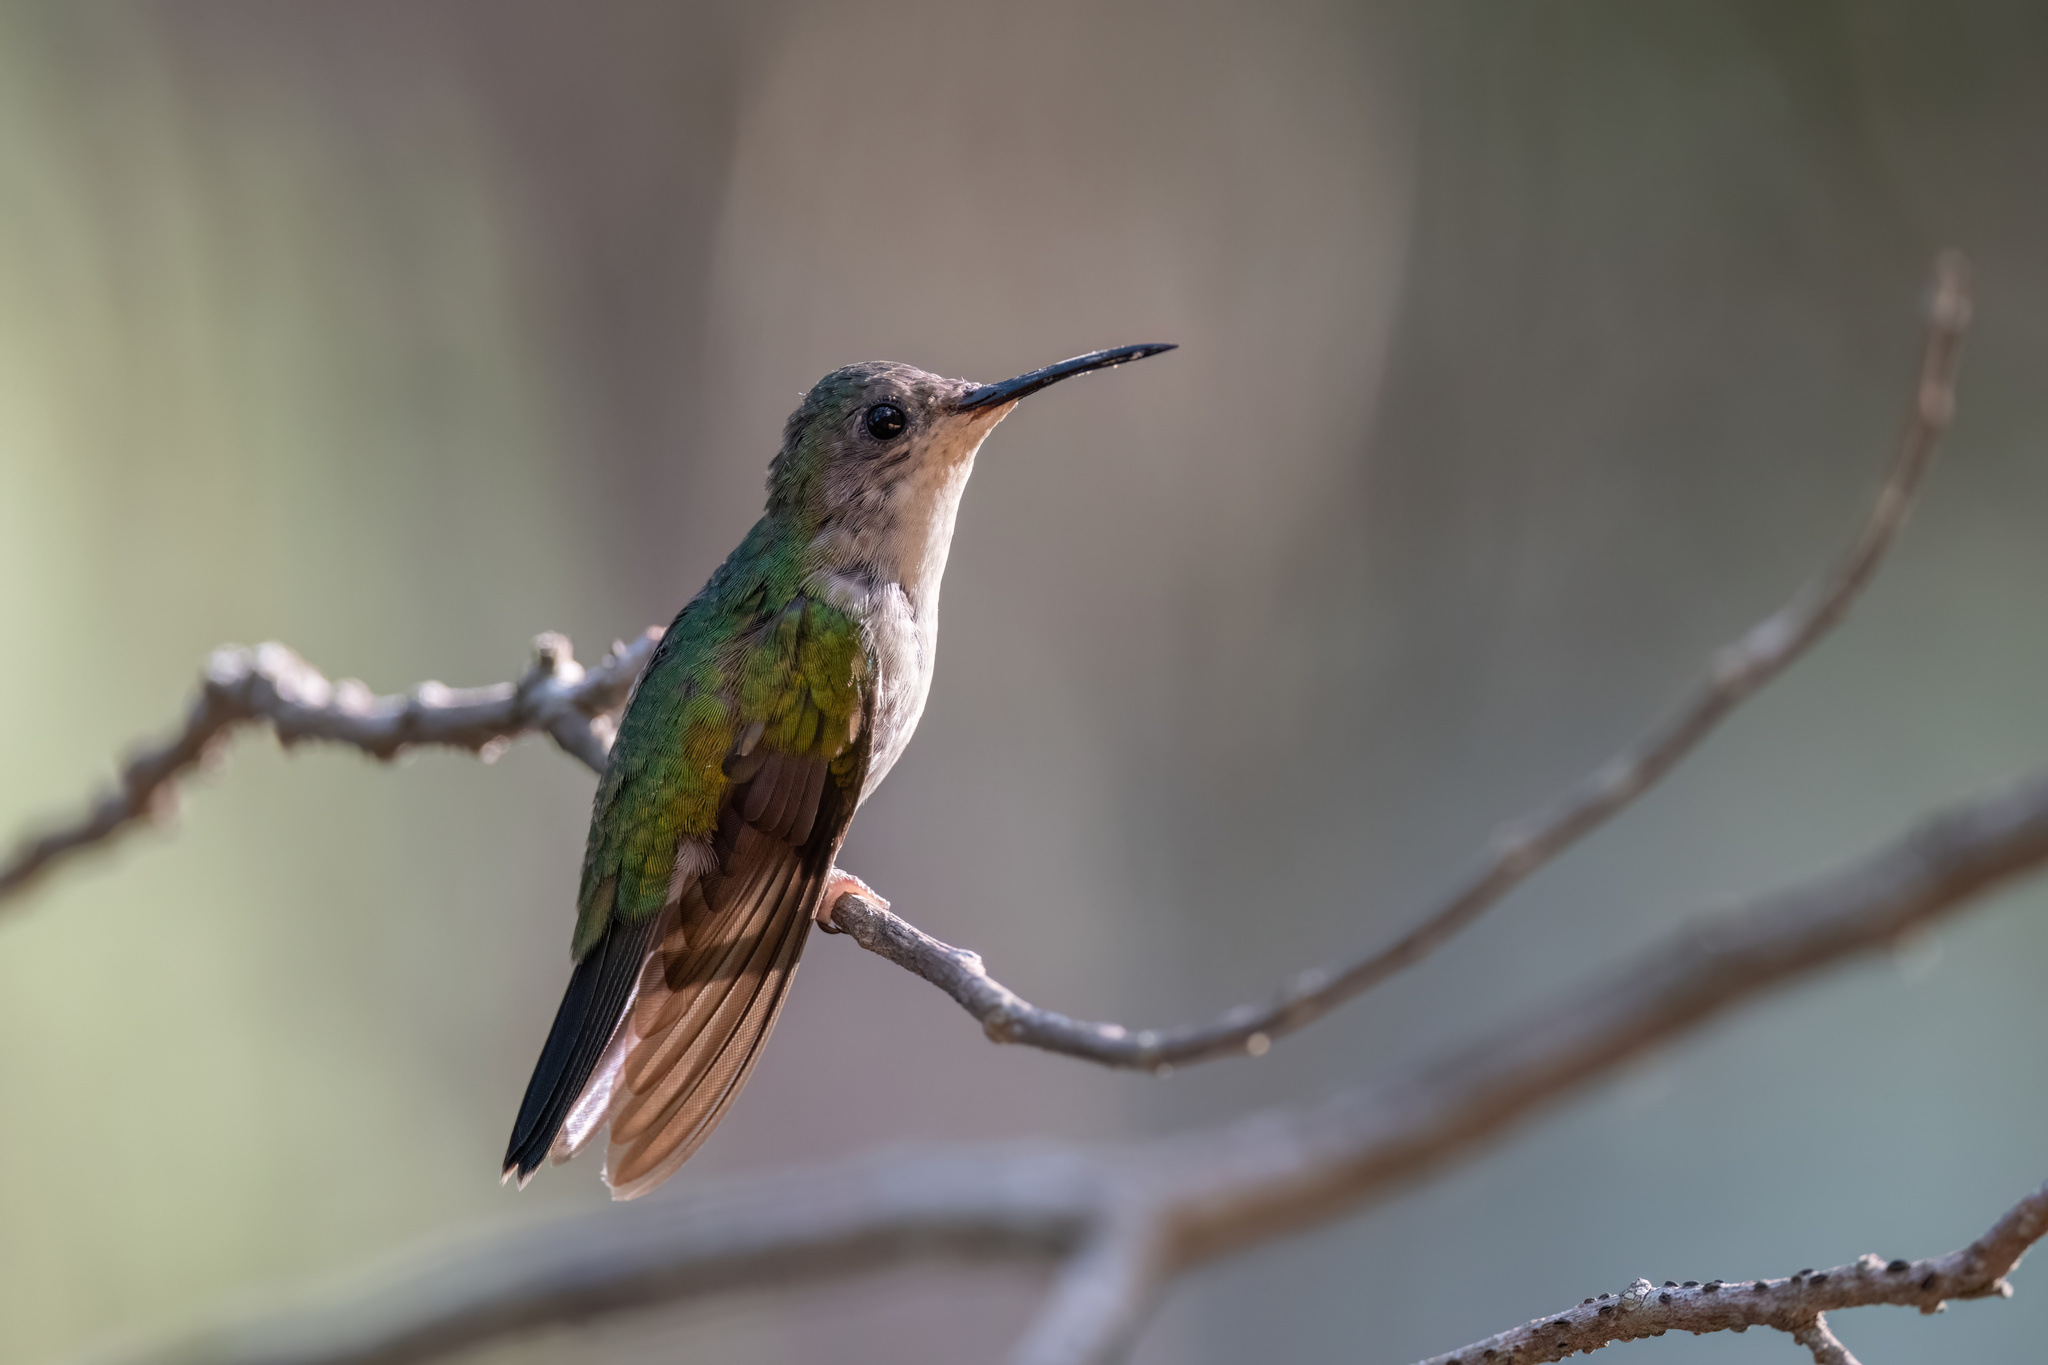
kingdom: Animalia
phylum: Chordata
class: Aves
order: Apodiformes
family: Trochilidae
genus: Eupherusa
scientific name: Eupherusa ridgwayi
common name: Mexican woodnymph
